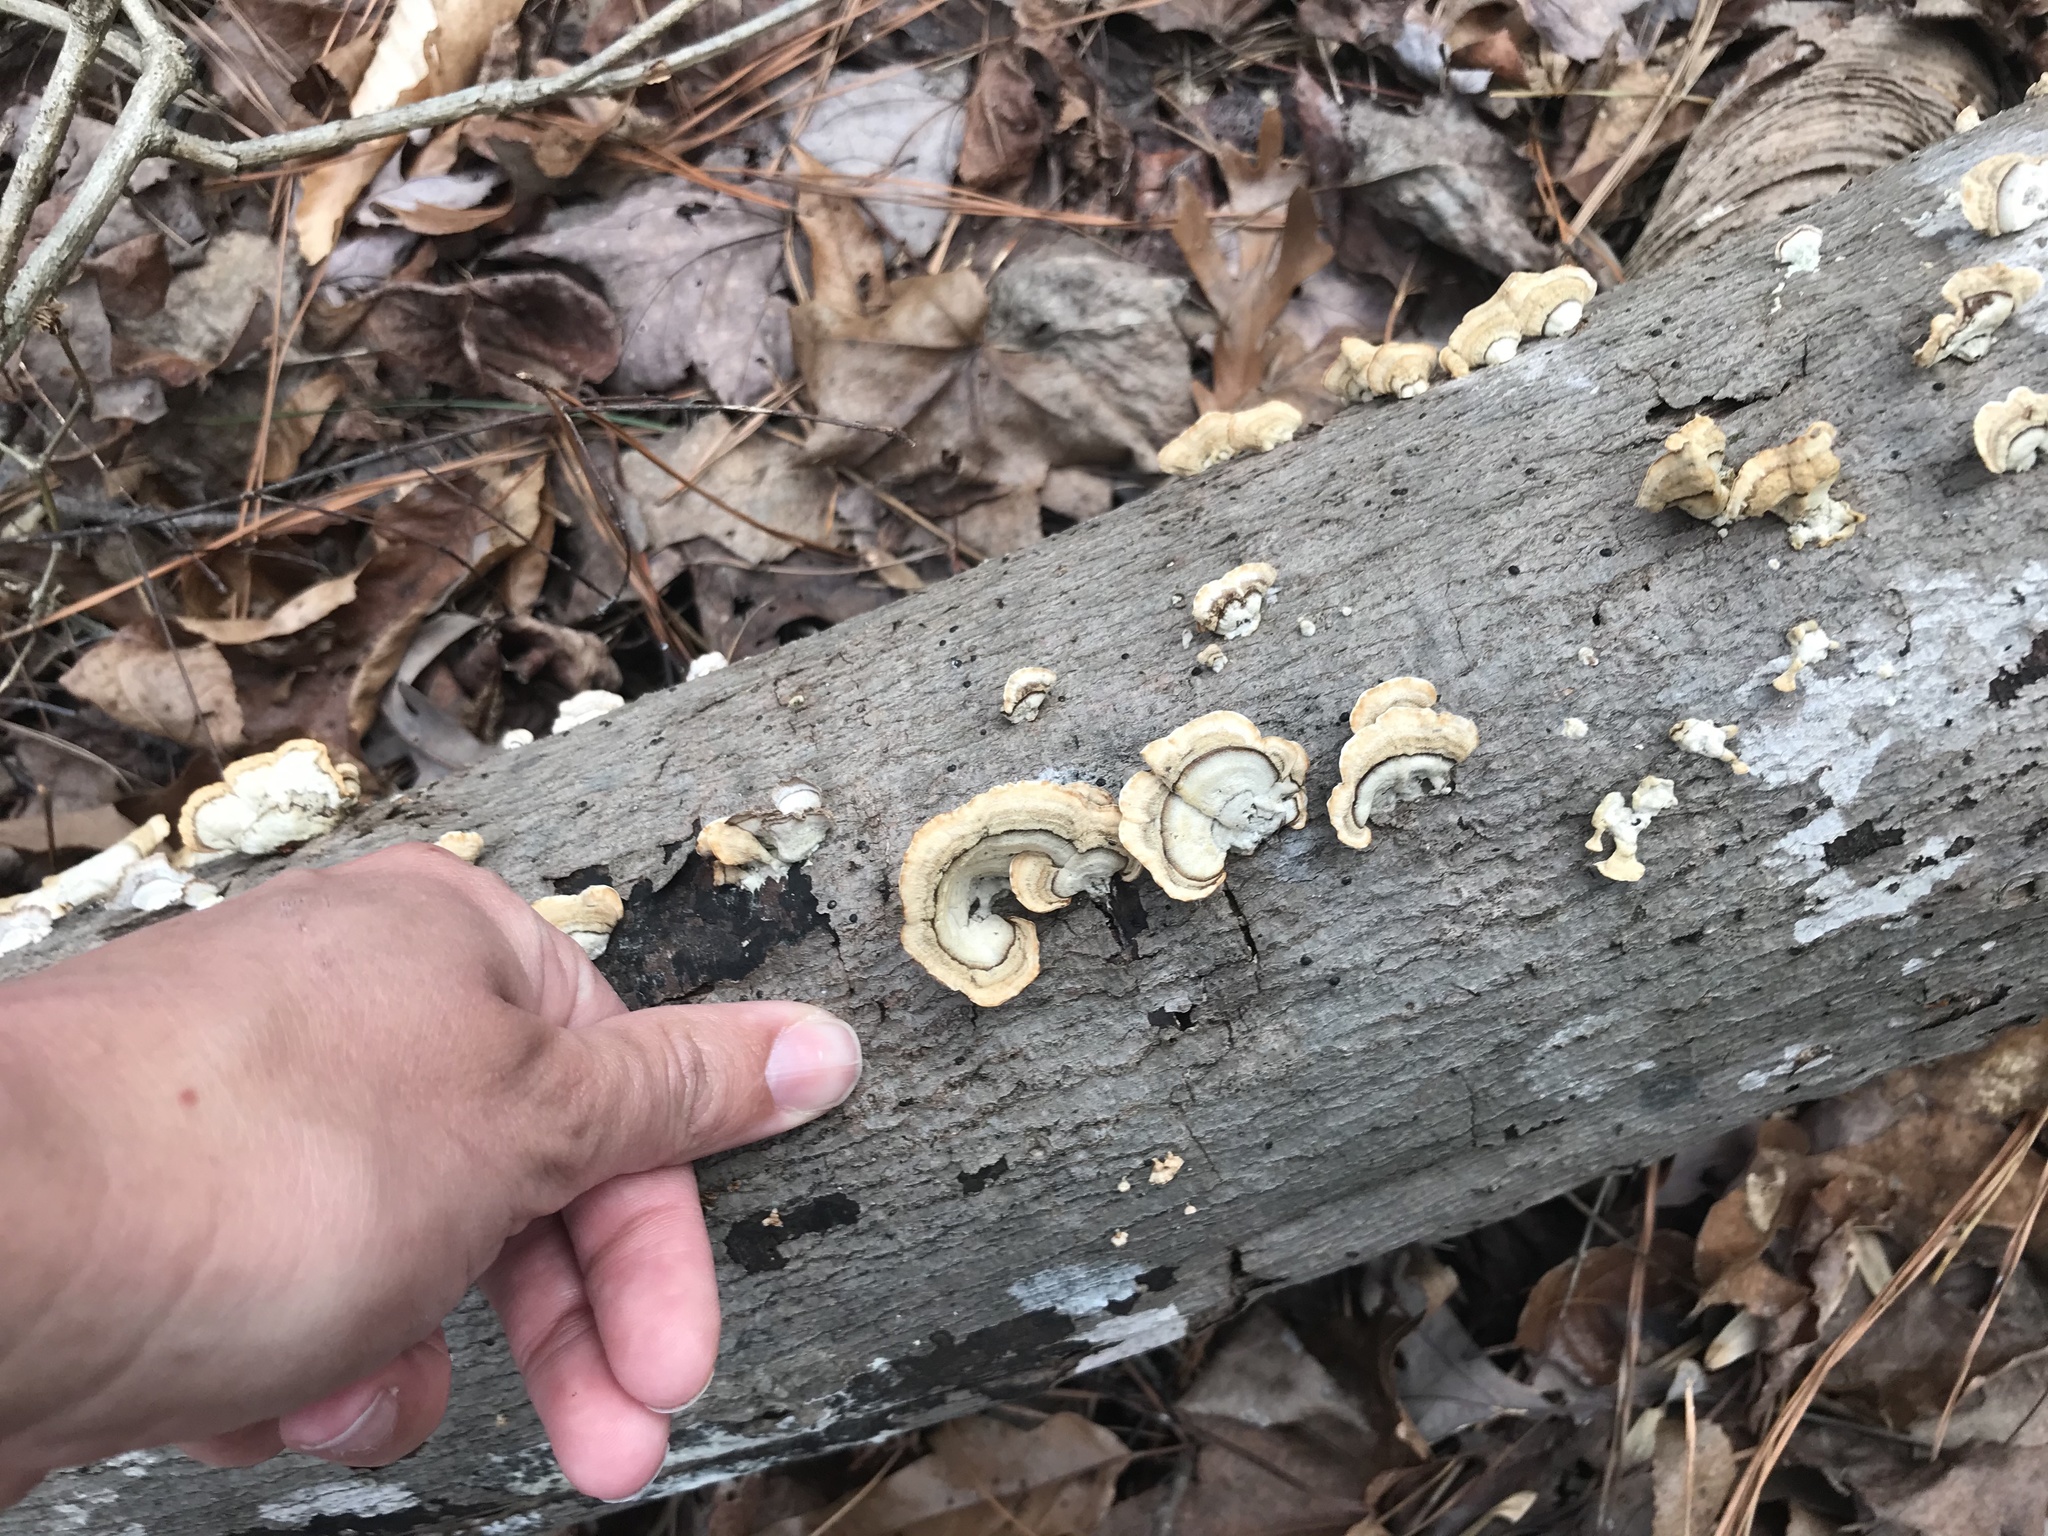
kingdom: Fungi
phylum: Basidiomycota
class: Agaricomycetes
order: Russulales
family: Stereaceae
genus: Stereum
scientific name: Stereum ostrea
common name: False turkeytail
